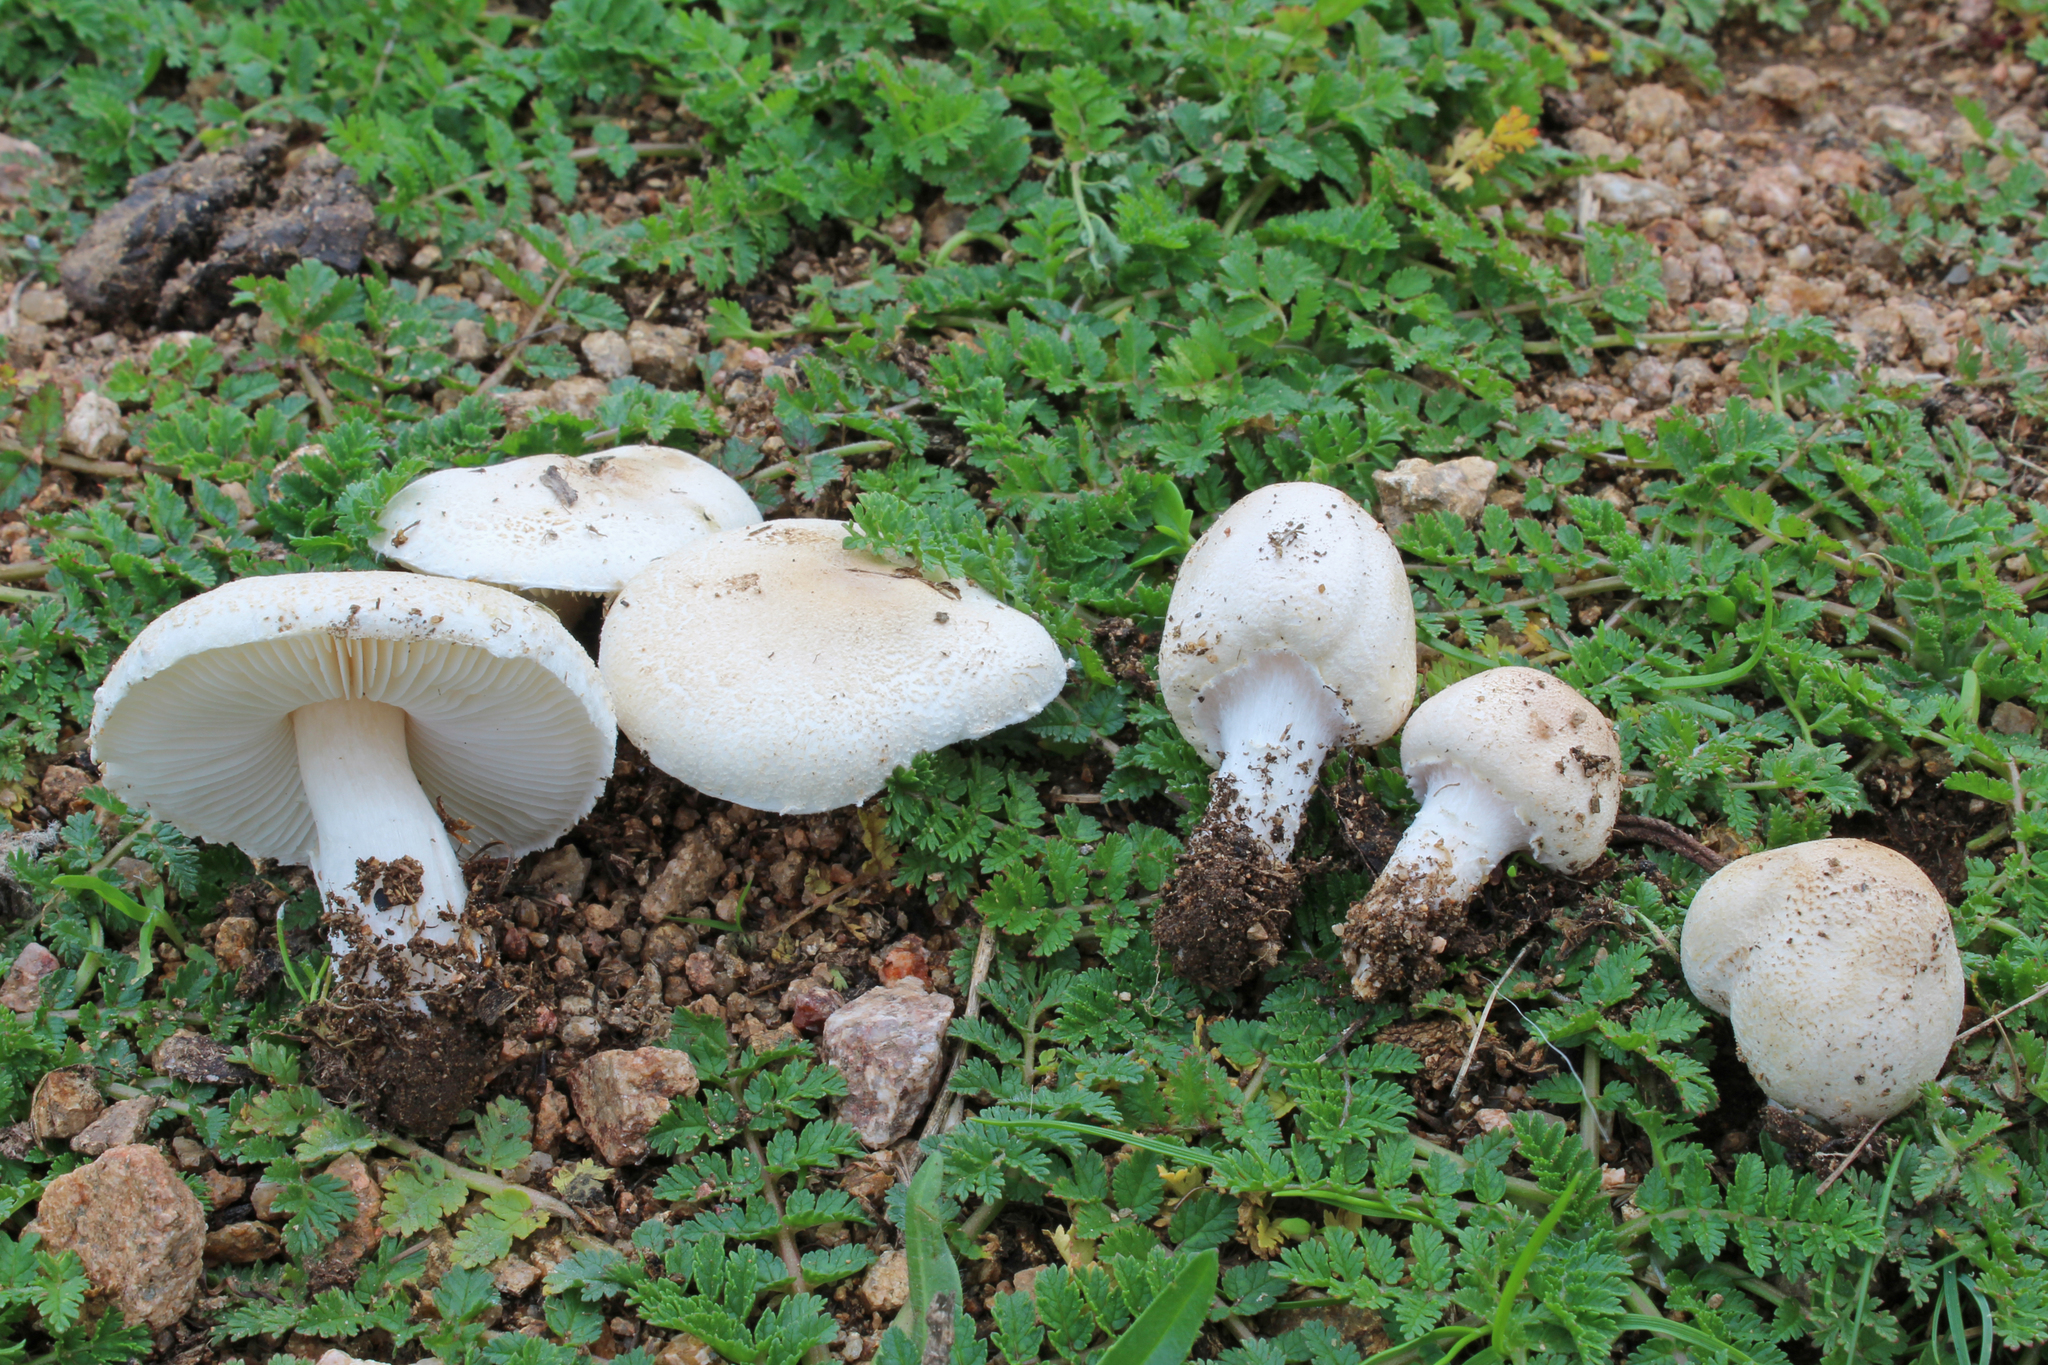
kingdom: Fungi
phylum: Basidiomycota
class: Agaricomycetes
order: Agaricales
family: Agaricaceae
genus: Lepiota
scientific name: Lepiota oreadiformis
